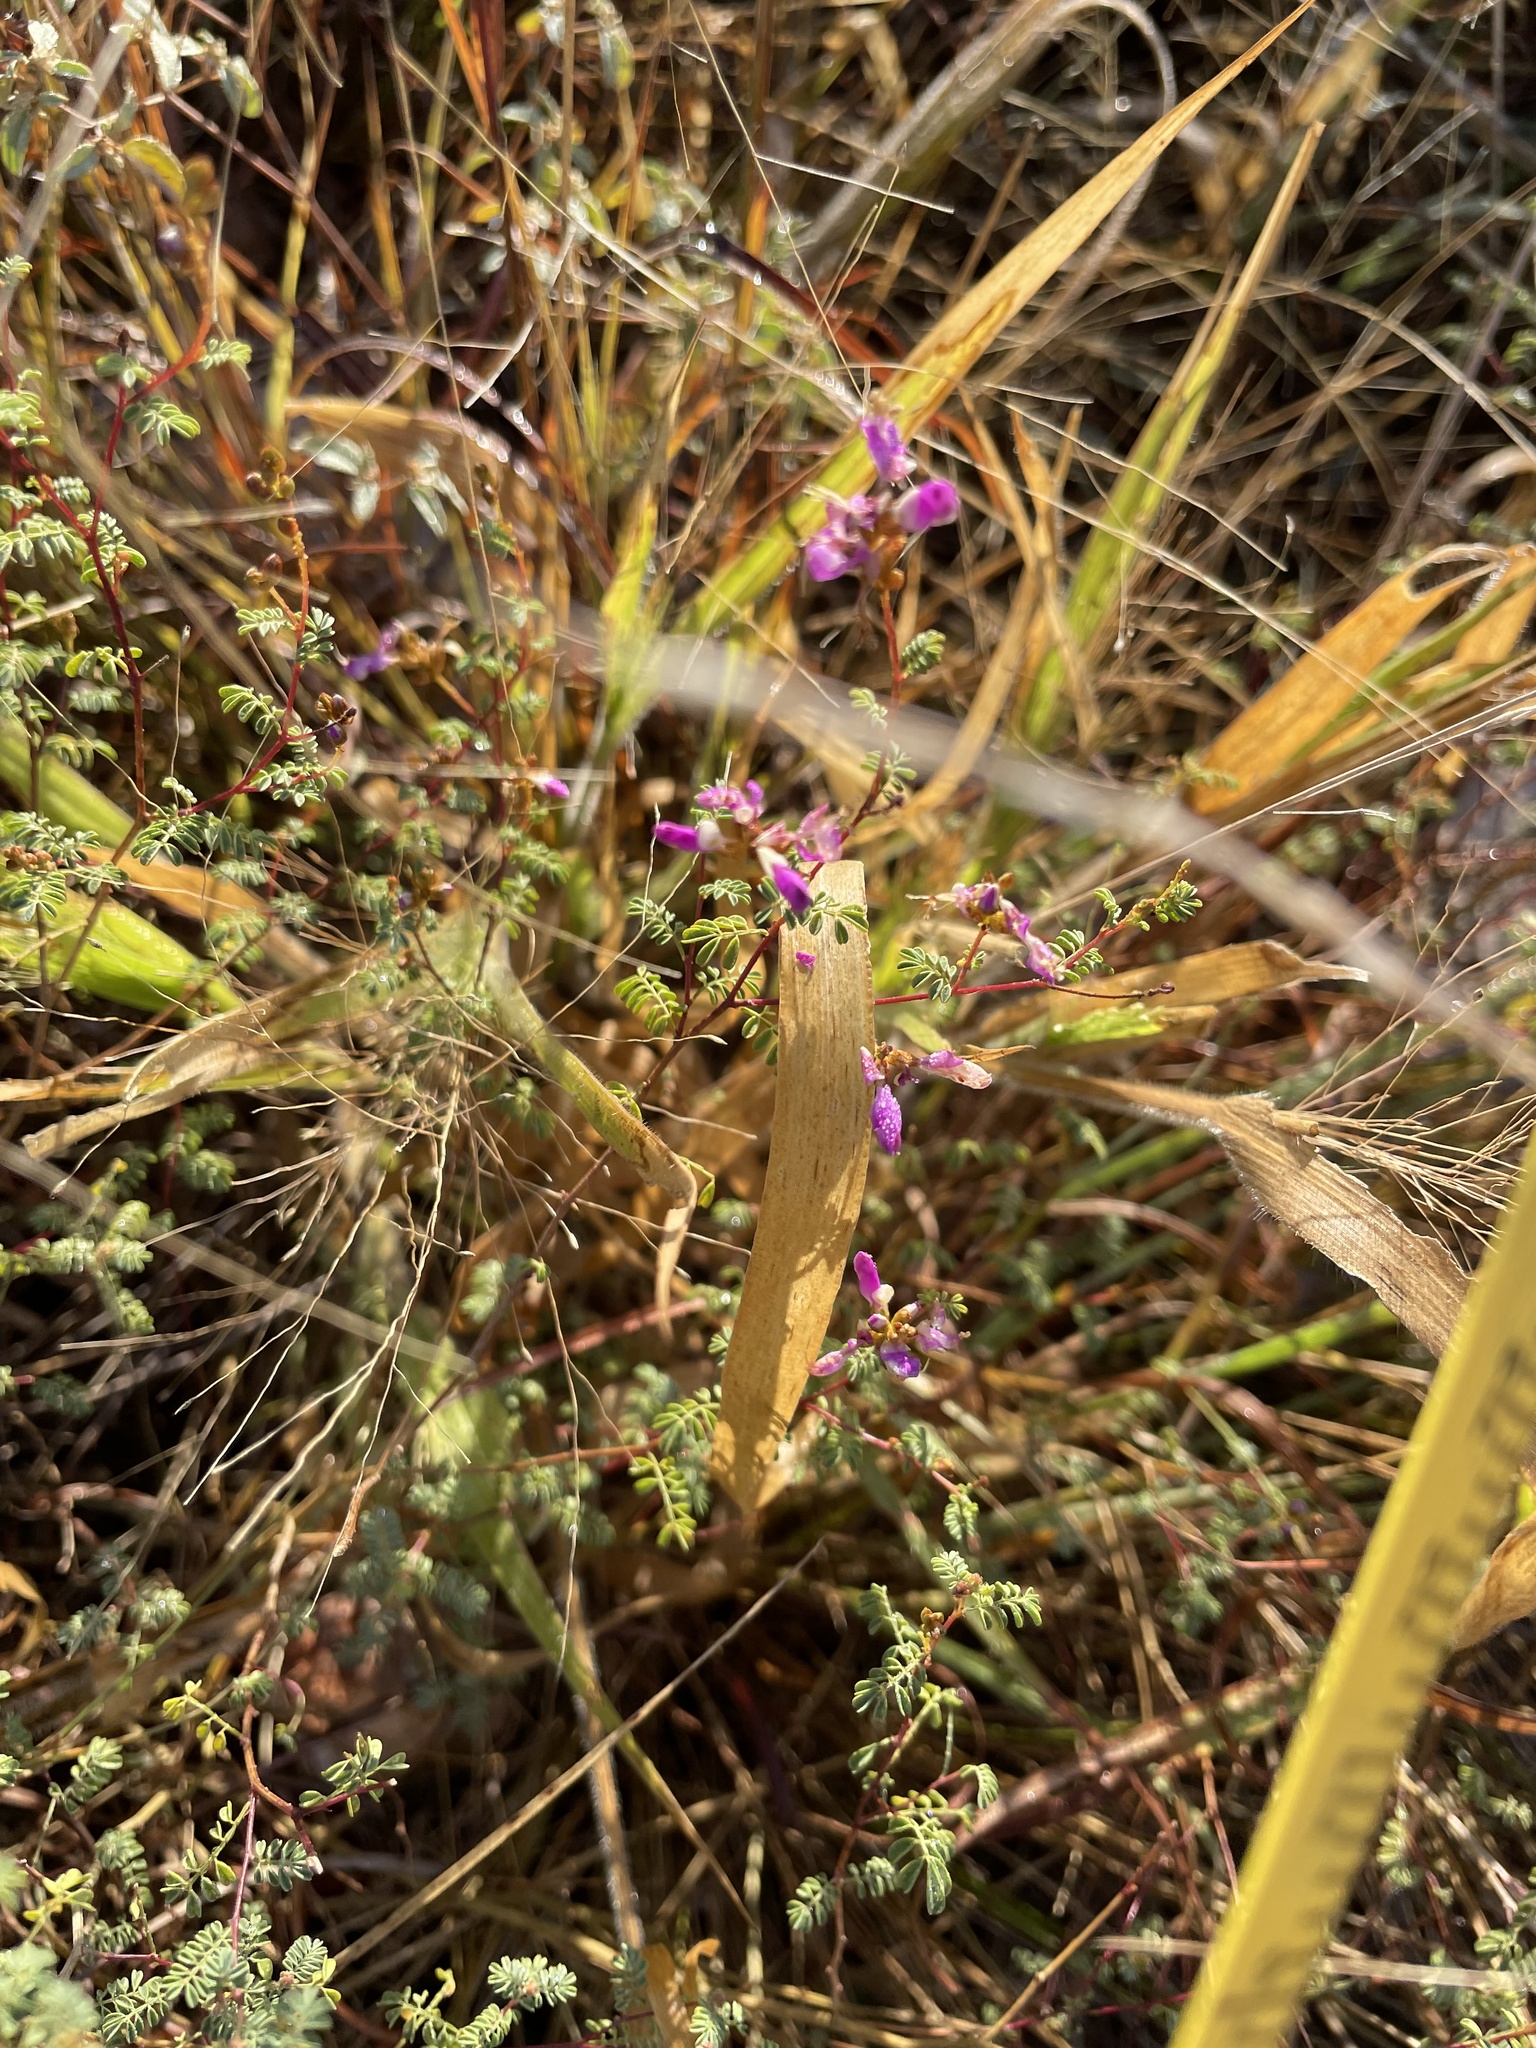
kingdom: Plantae
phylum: Tracheophyta
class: Magnoliopsida
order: Fabales
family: Fabaceae
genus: Dalea
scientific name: Dalea frutescens
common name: Black dalea
